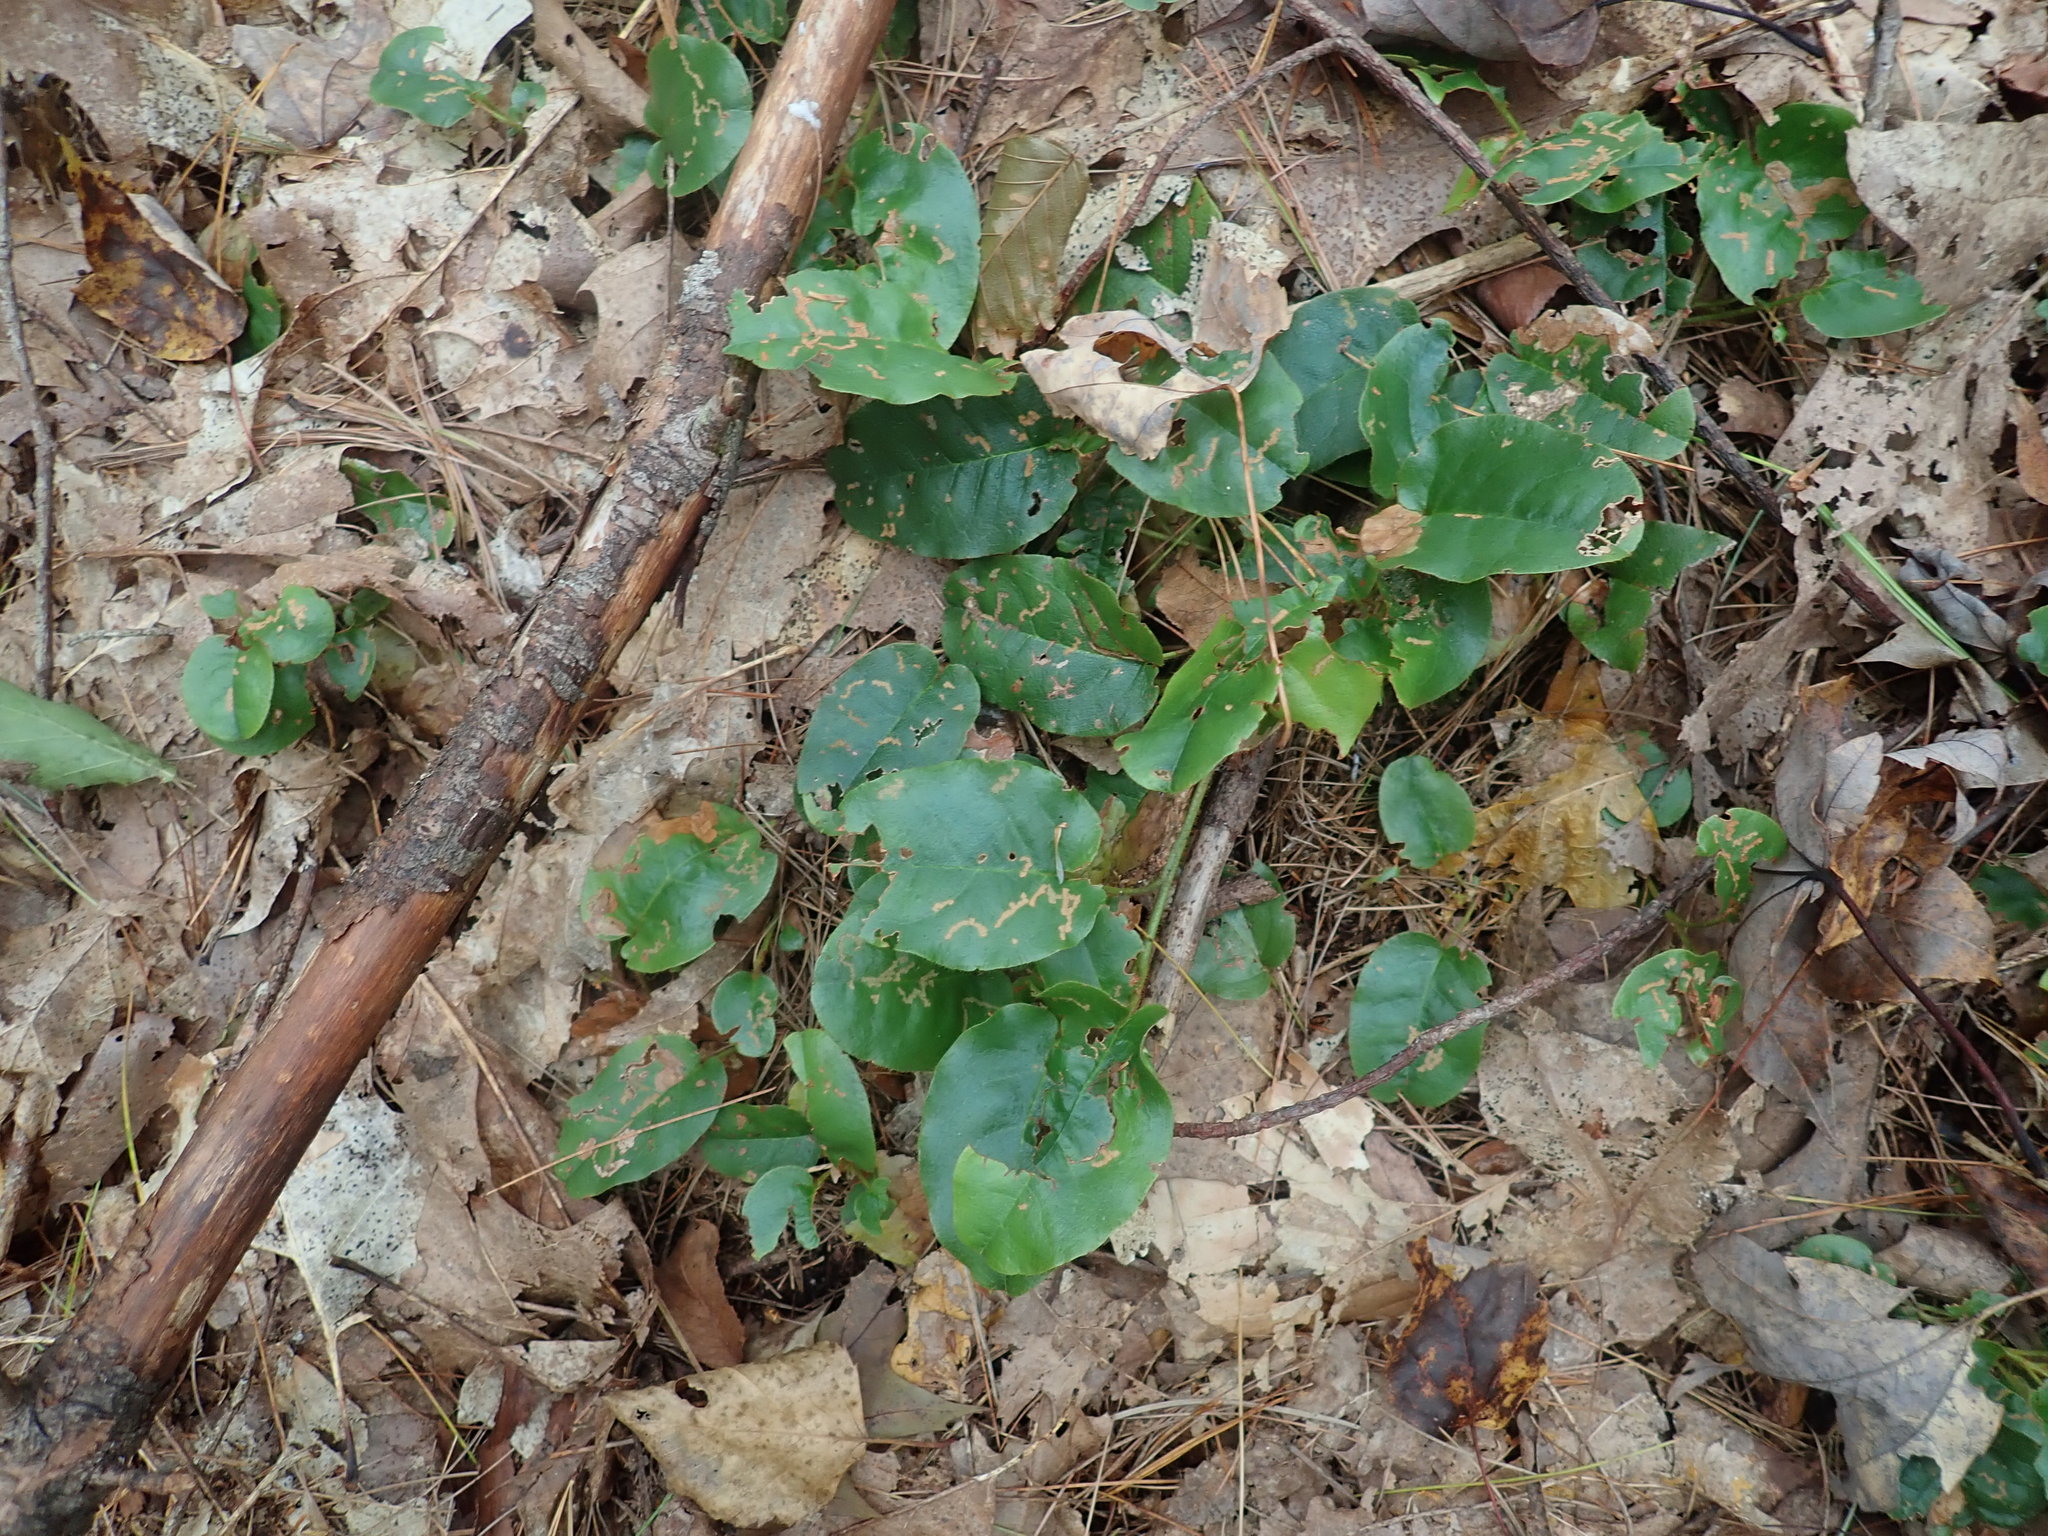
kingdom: Plantae
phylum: Tracheophyta
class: Magnoliopsida
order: Ericales
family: Ericaceae
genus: Epigaea
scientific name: Epigaea repens
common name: Gravelroot
